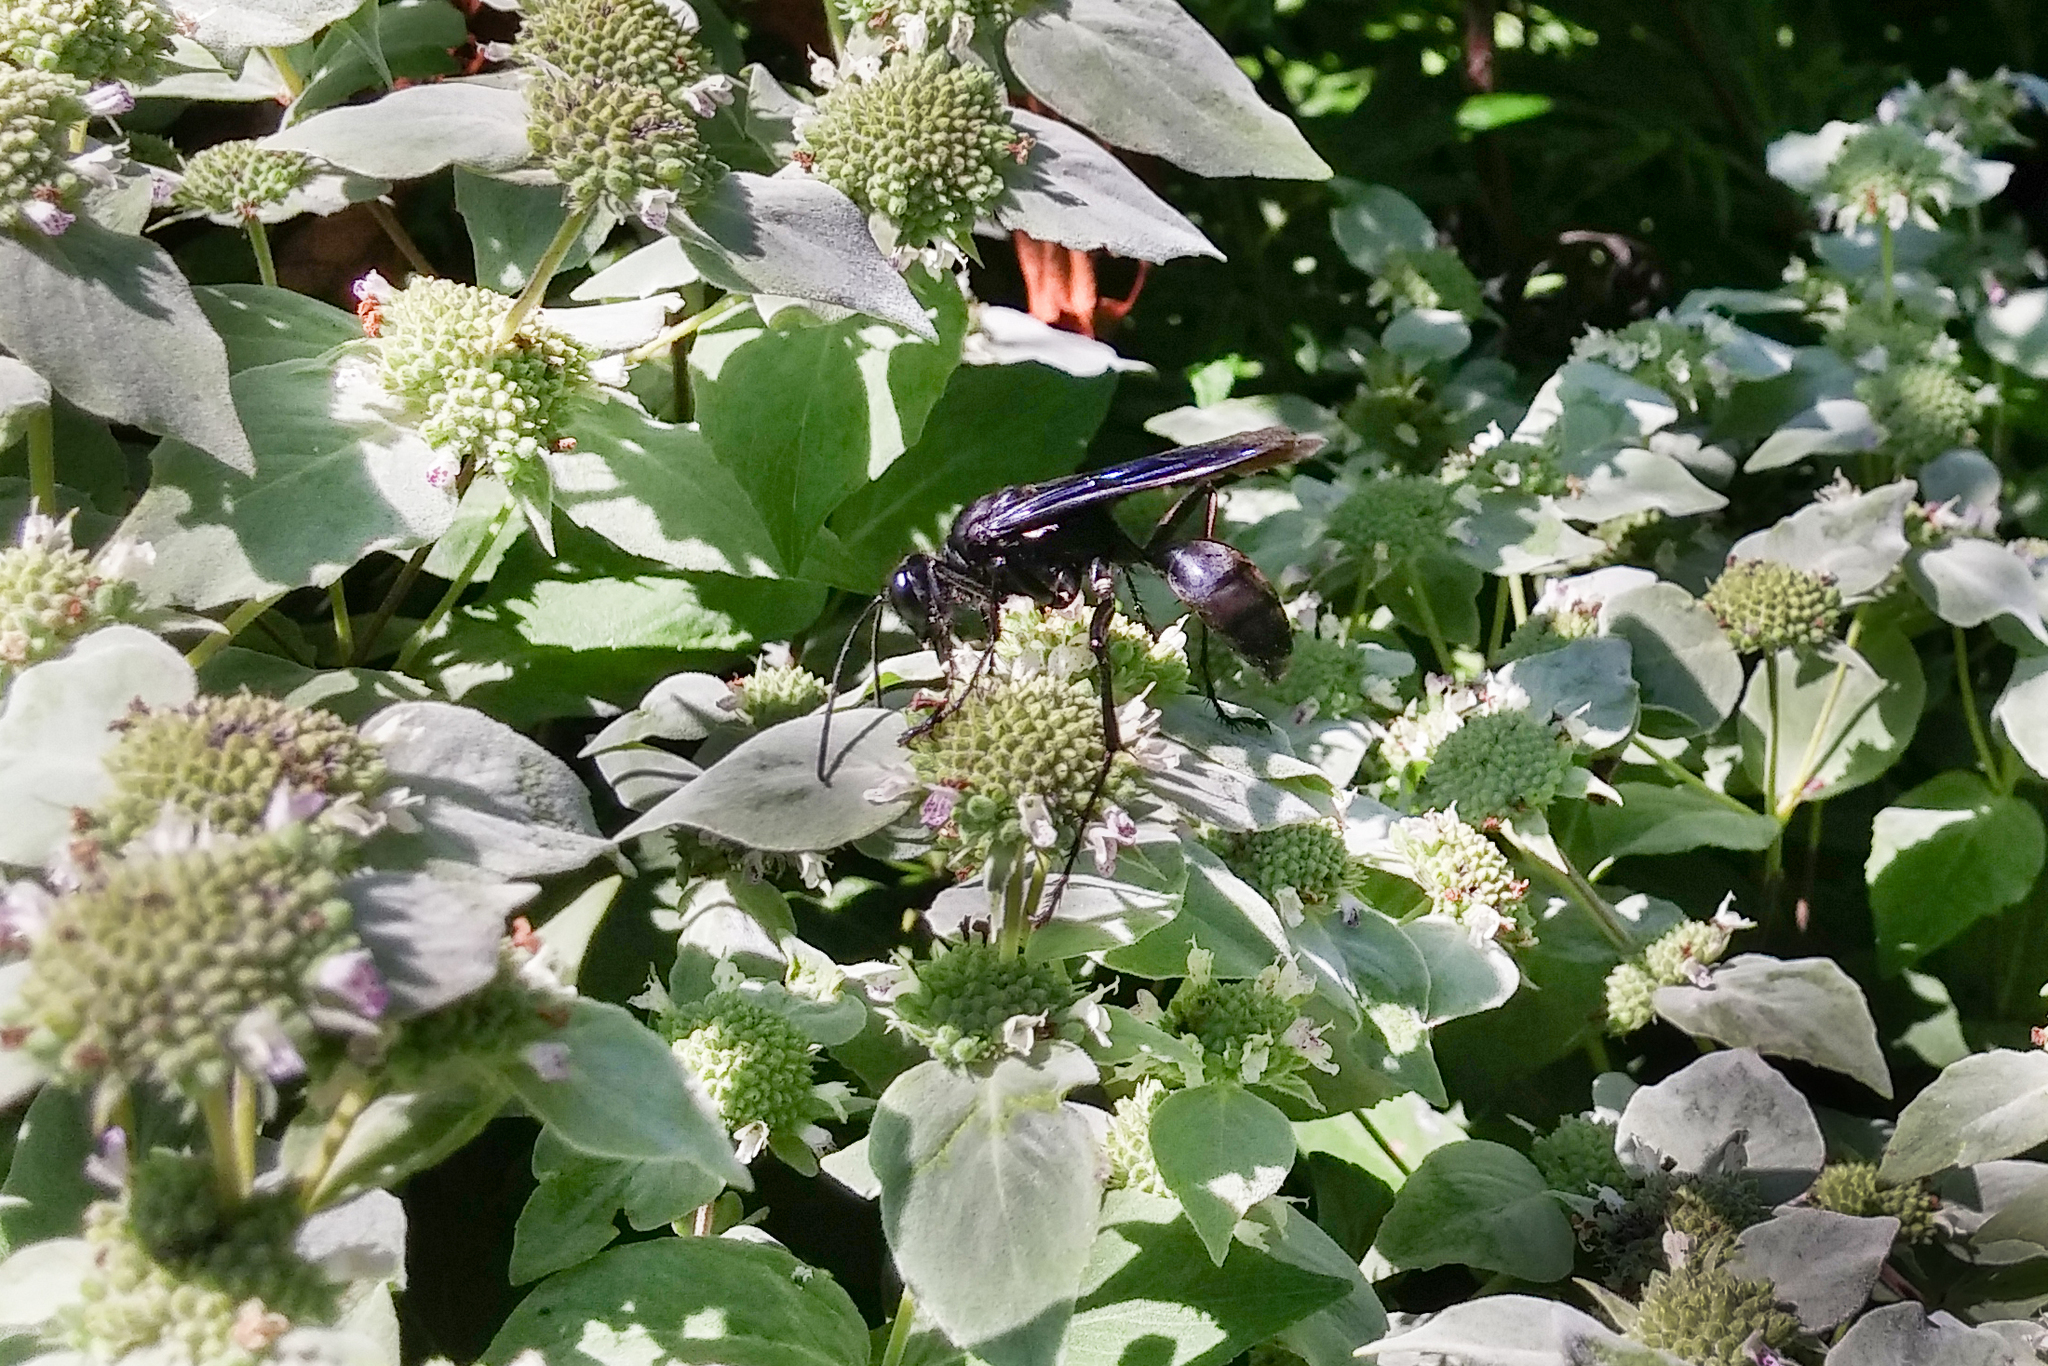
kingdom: Animalia
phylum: Arthropoda
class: Insecta
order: Hymenoptera
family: Sphecidae
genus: Sphex
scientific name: Sphex pensylvanicus
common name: Great black digger wasp
